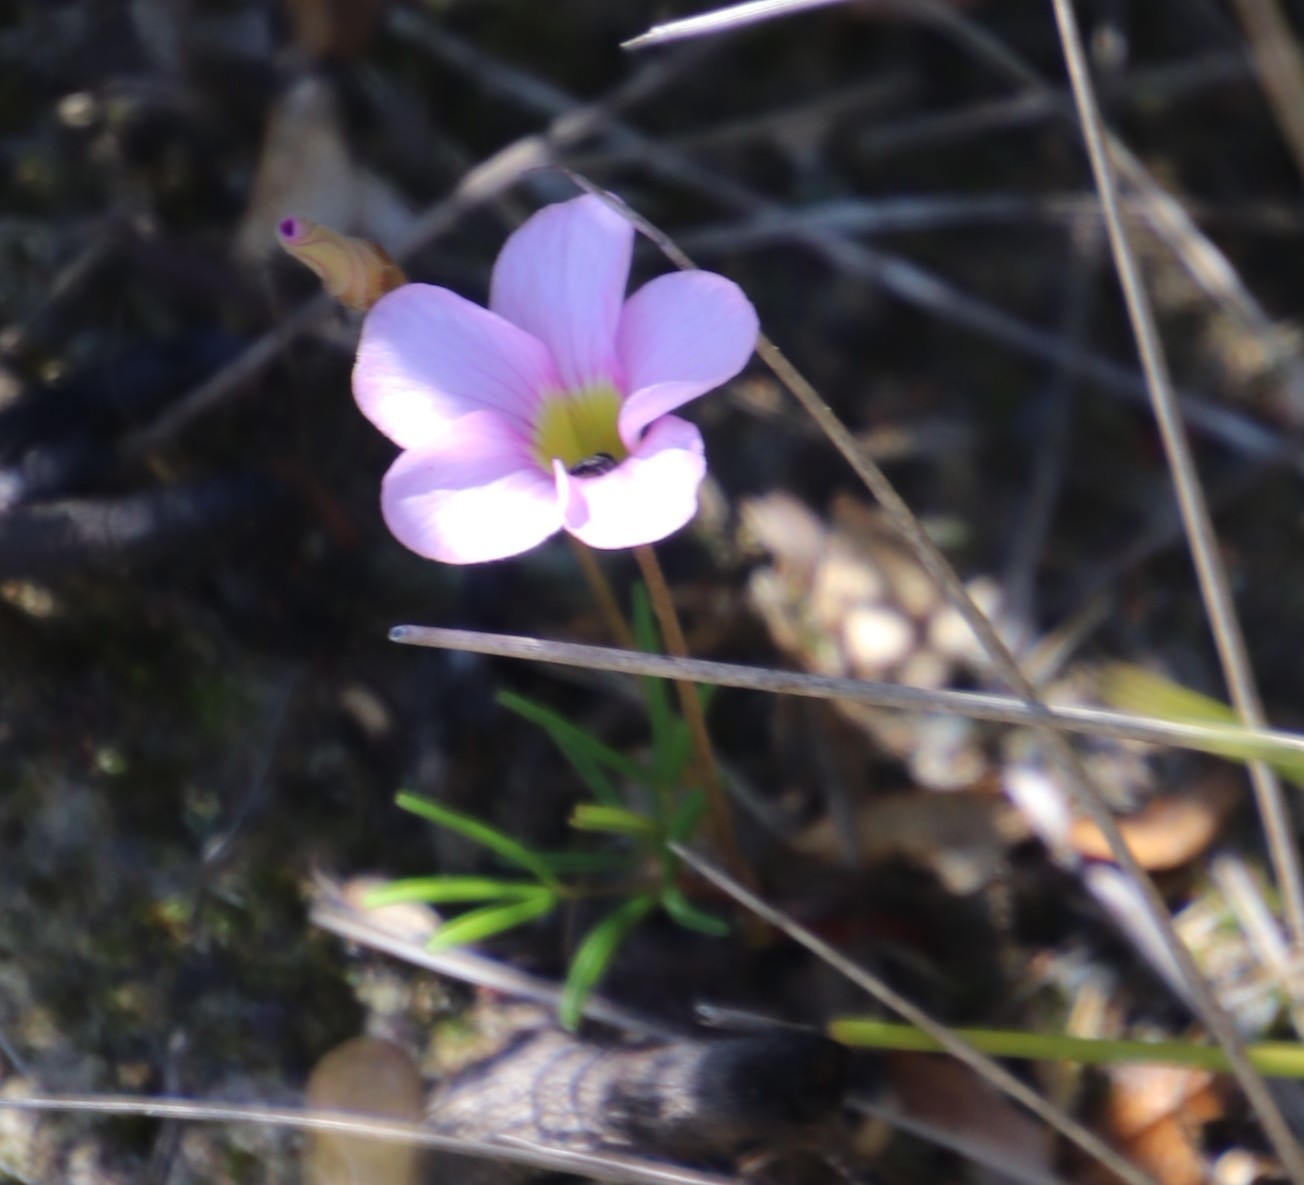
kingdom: Plantae
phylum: Tracheophyta
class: Magnoliopsida
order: Oxalidales
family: Oxalidaceae
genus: Oxalis
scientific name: Oxalis polyphylla
